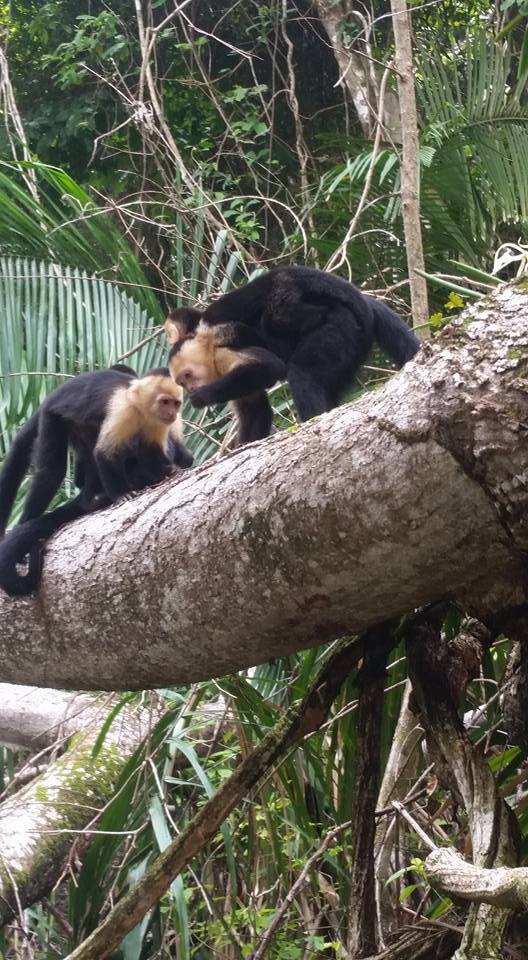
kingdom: Animalia
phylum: Chordata
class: Mammalia
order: Primates
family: Cebidae
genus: Cebus
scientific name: Cebus imitator
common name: Panamanian white-faced capuchin
